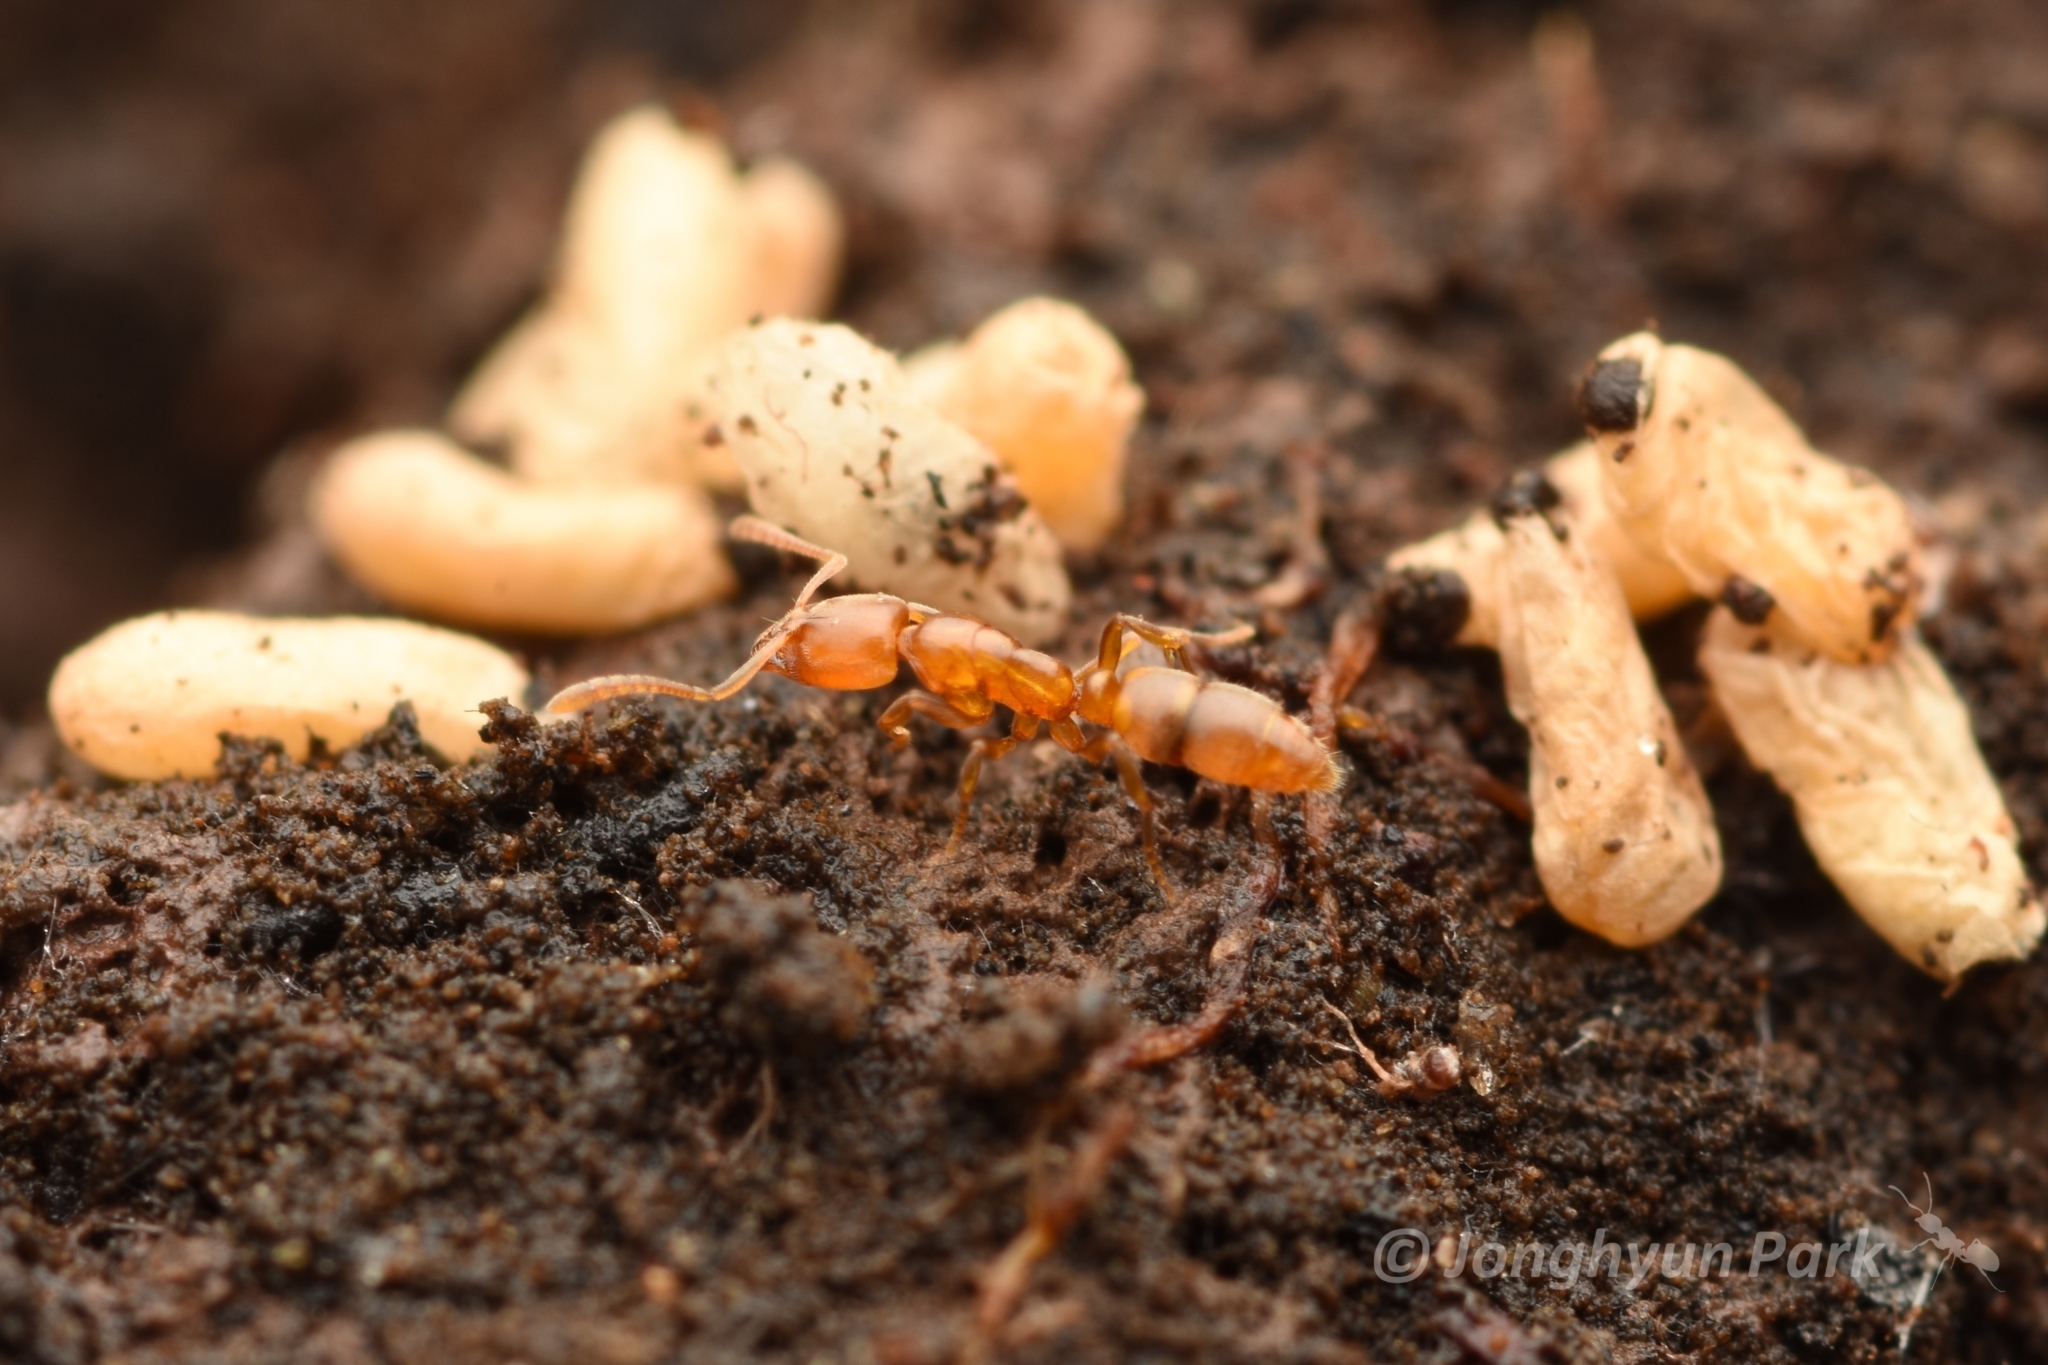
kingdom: Animalia
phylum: Arthropoda
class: Insecta
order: Hymenoptera
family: Formicidae
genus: Hypoponera
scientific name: Hypoponera sauteri
